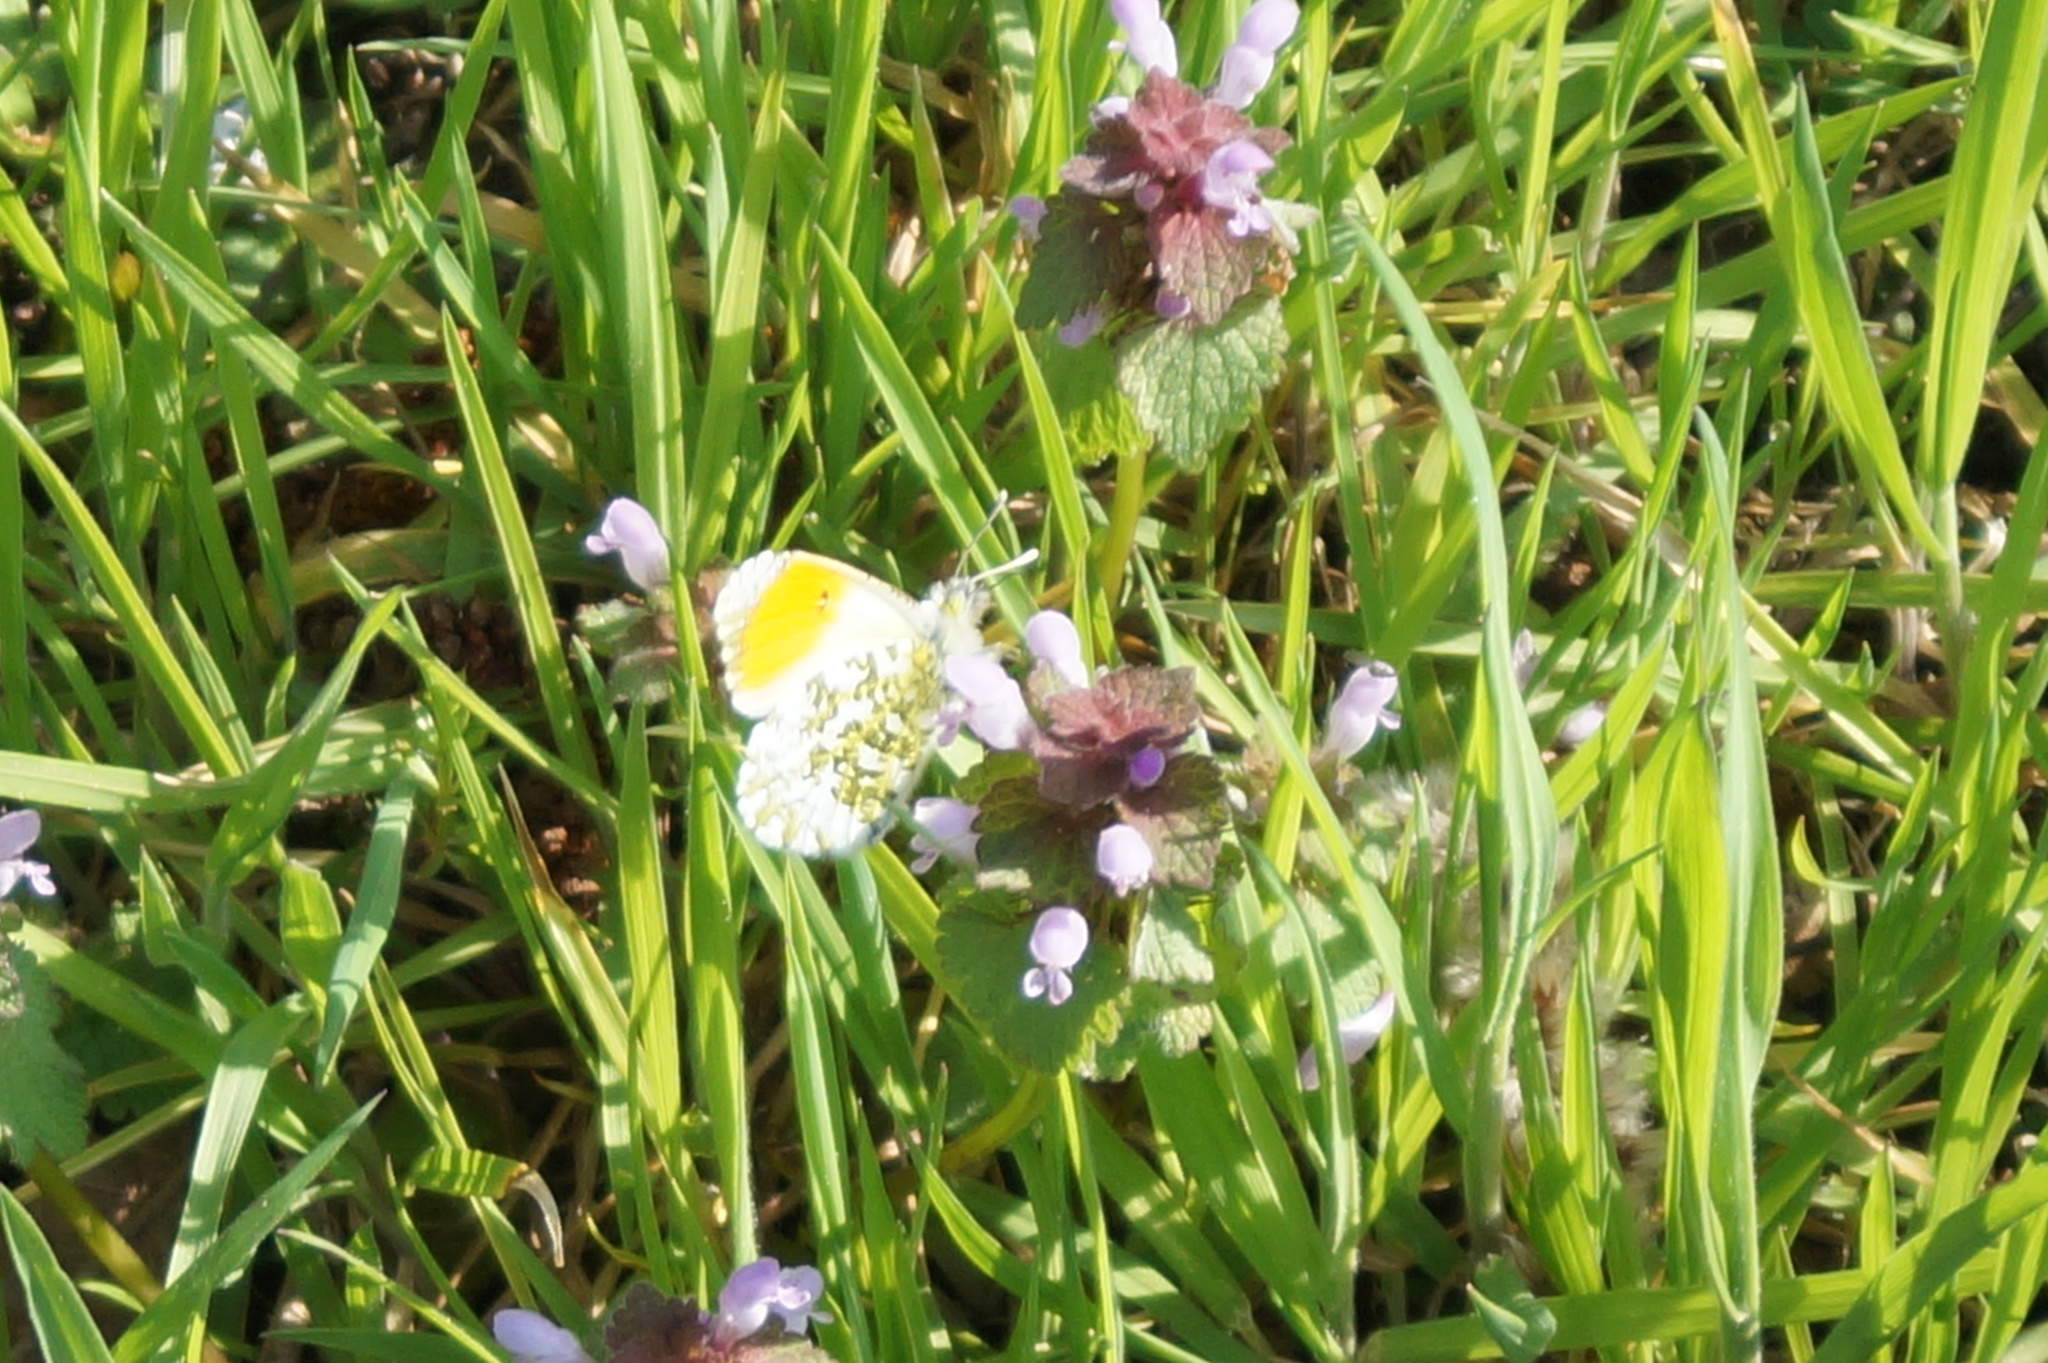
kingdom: Animalia
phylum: Arthropoda
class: Insecta
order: Lepidoptera
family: Pieridae
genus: Anthocharis
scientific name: Anthocharis cardamines
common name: Orange-tip
